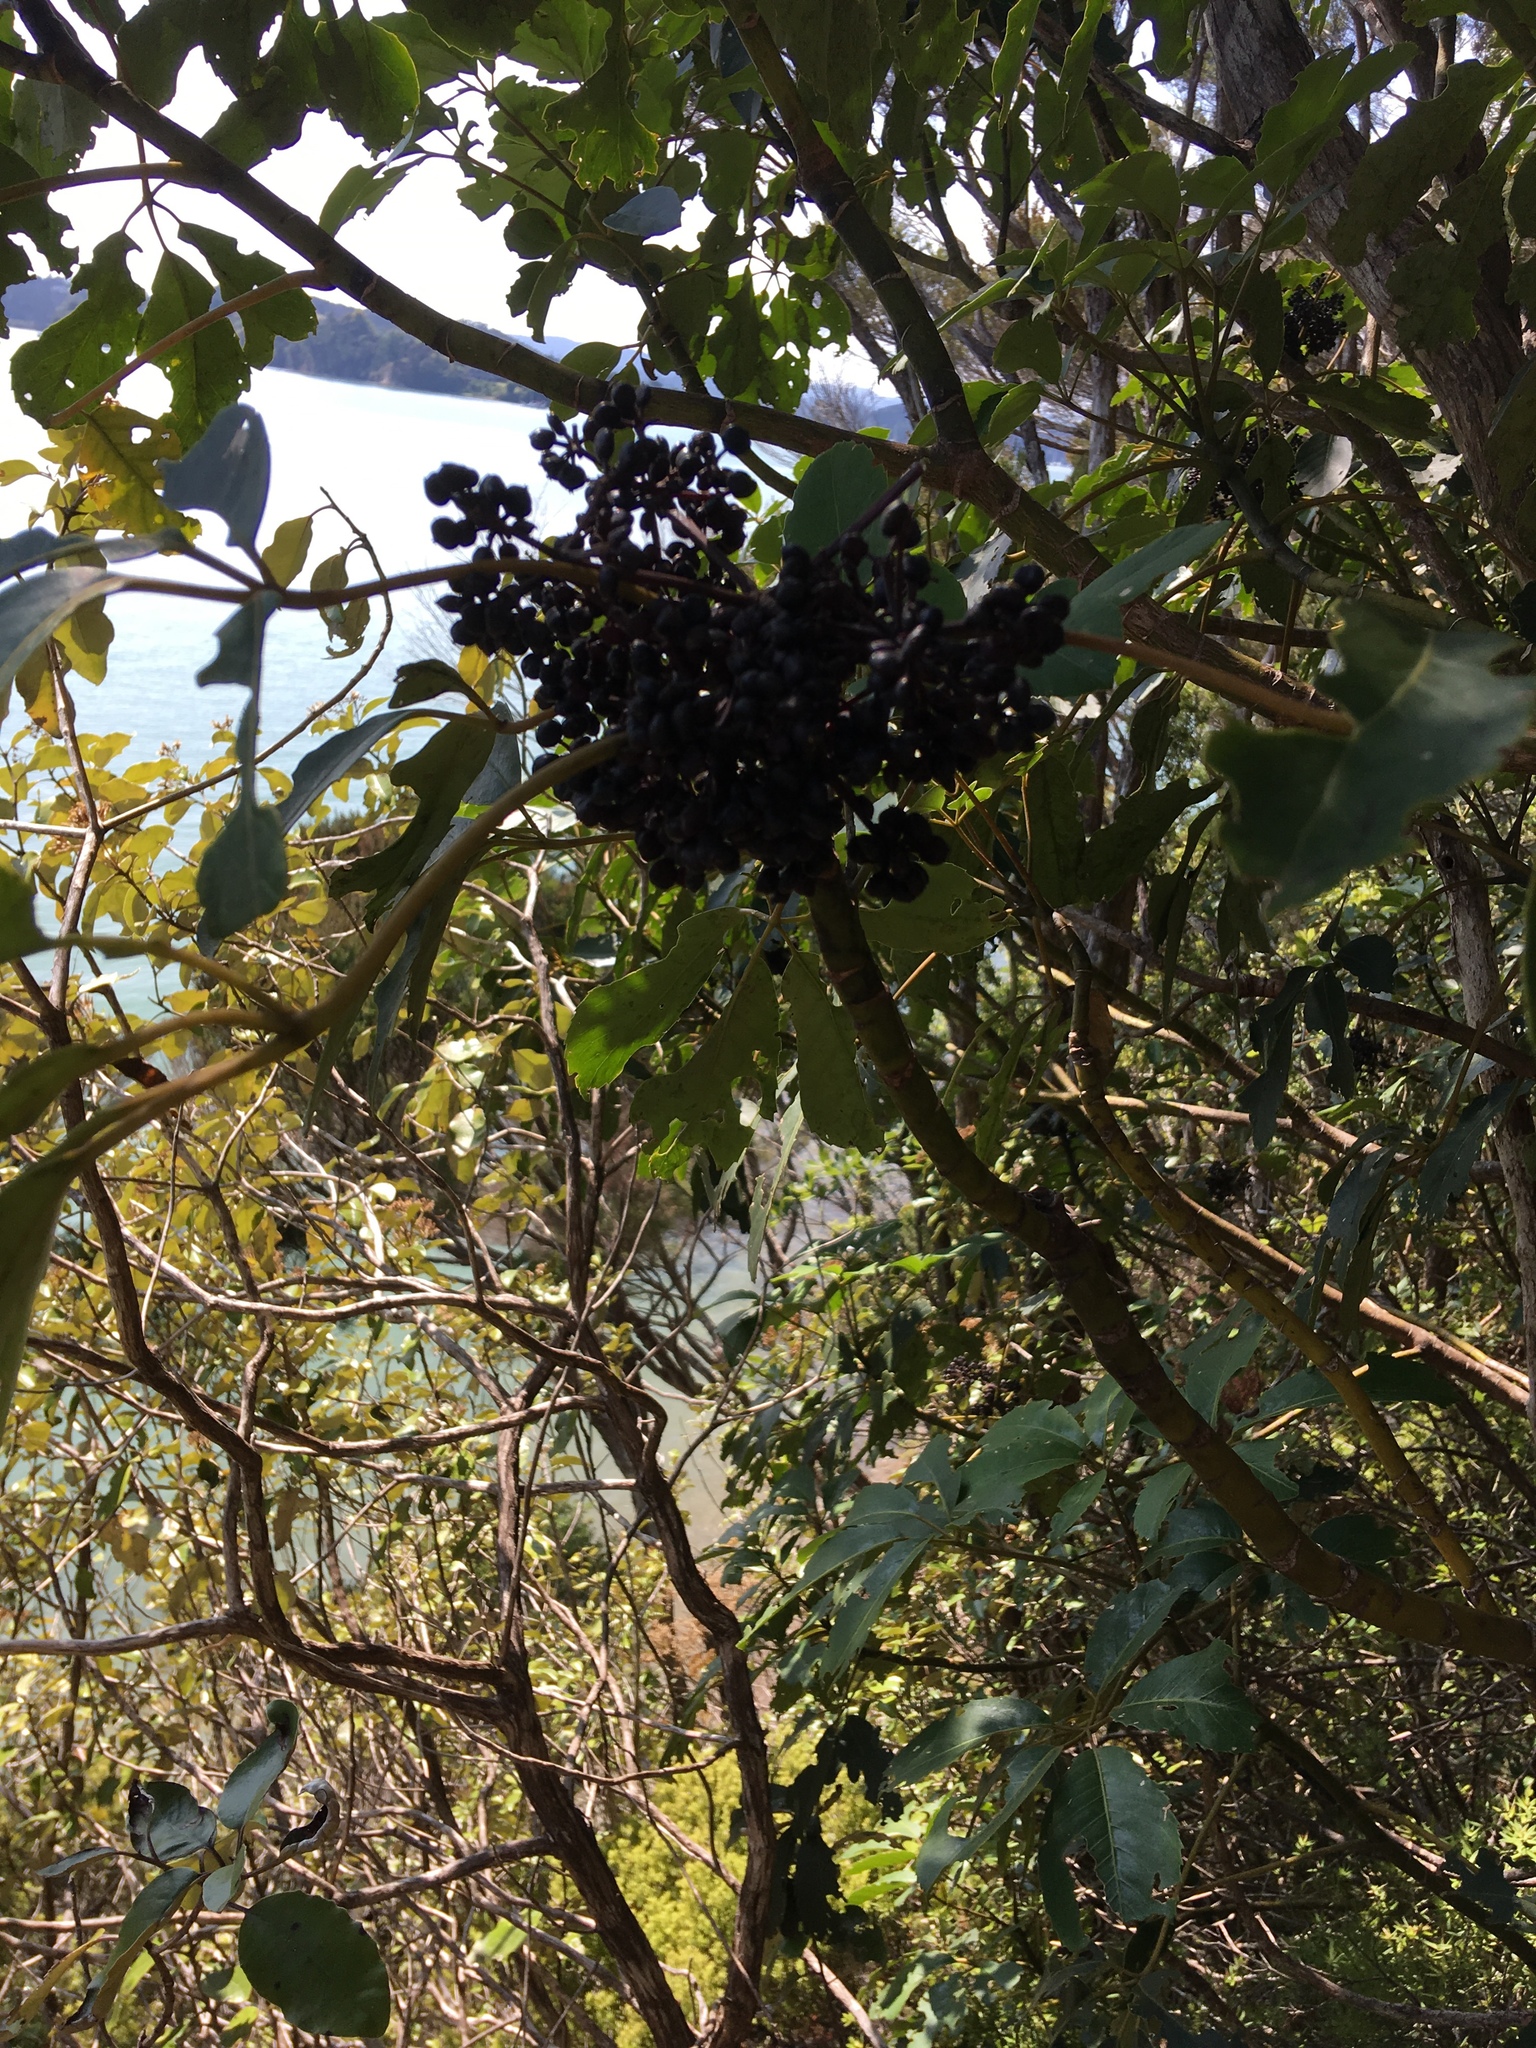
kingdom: Plantae
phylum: Tracheophyta
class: Magnoliopsida
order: Apiales
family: Araliaceae
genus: Neopanax
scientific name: Neopanax arboreus
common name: Five-fingers
